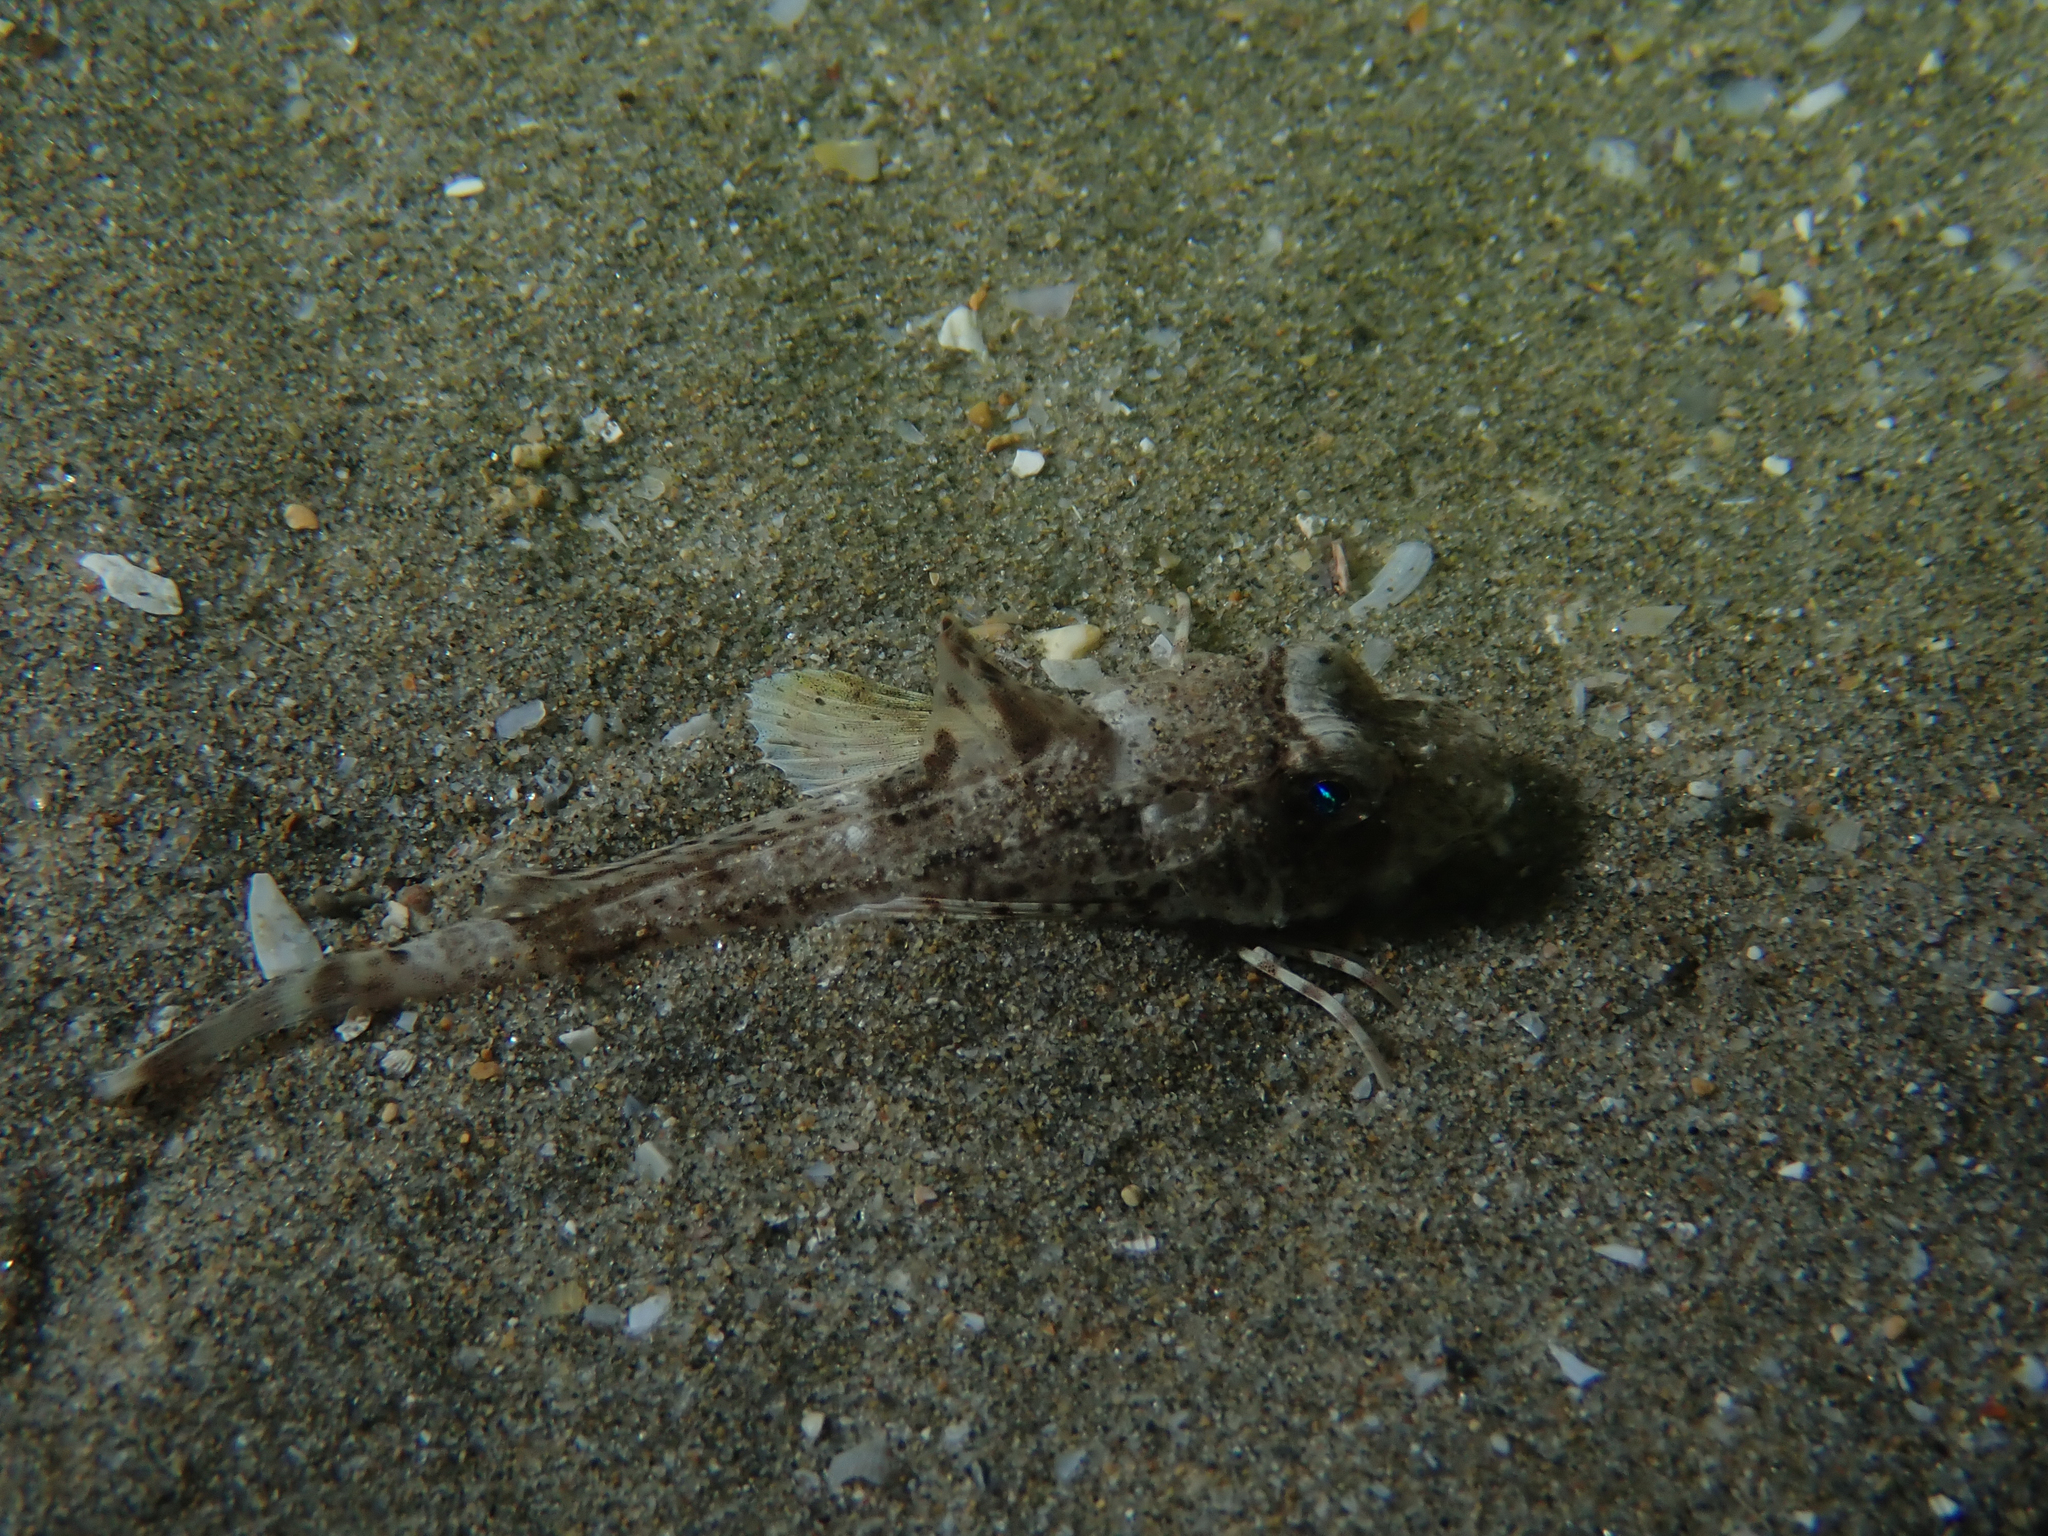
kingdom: Animalia
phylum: Chordata
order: Scorpaeniformes
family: Triglidae
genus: Chelidonichthys
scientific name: Chelidonichthys lucerna
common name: Tub gurnard
